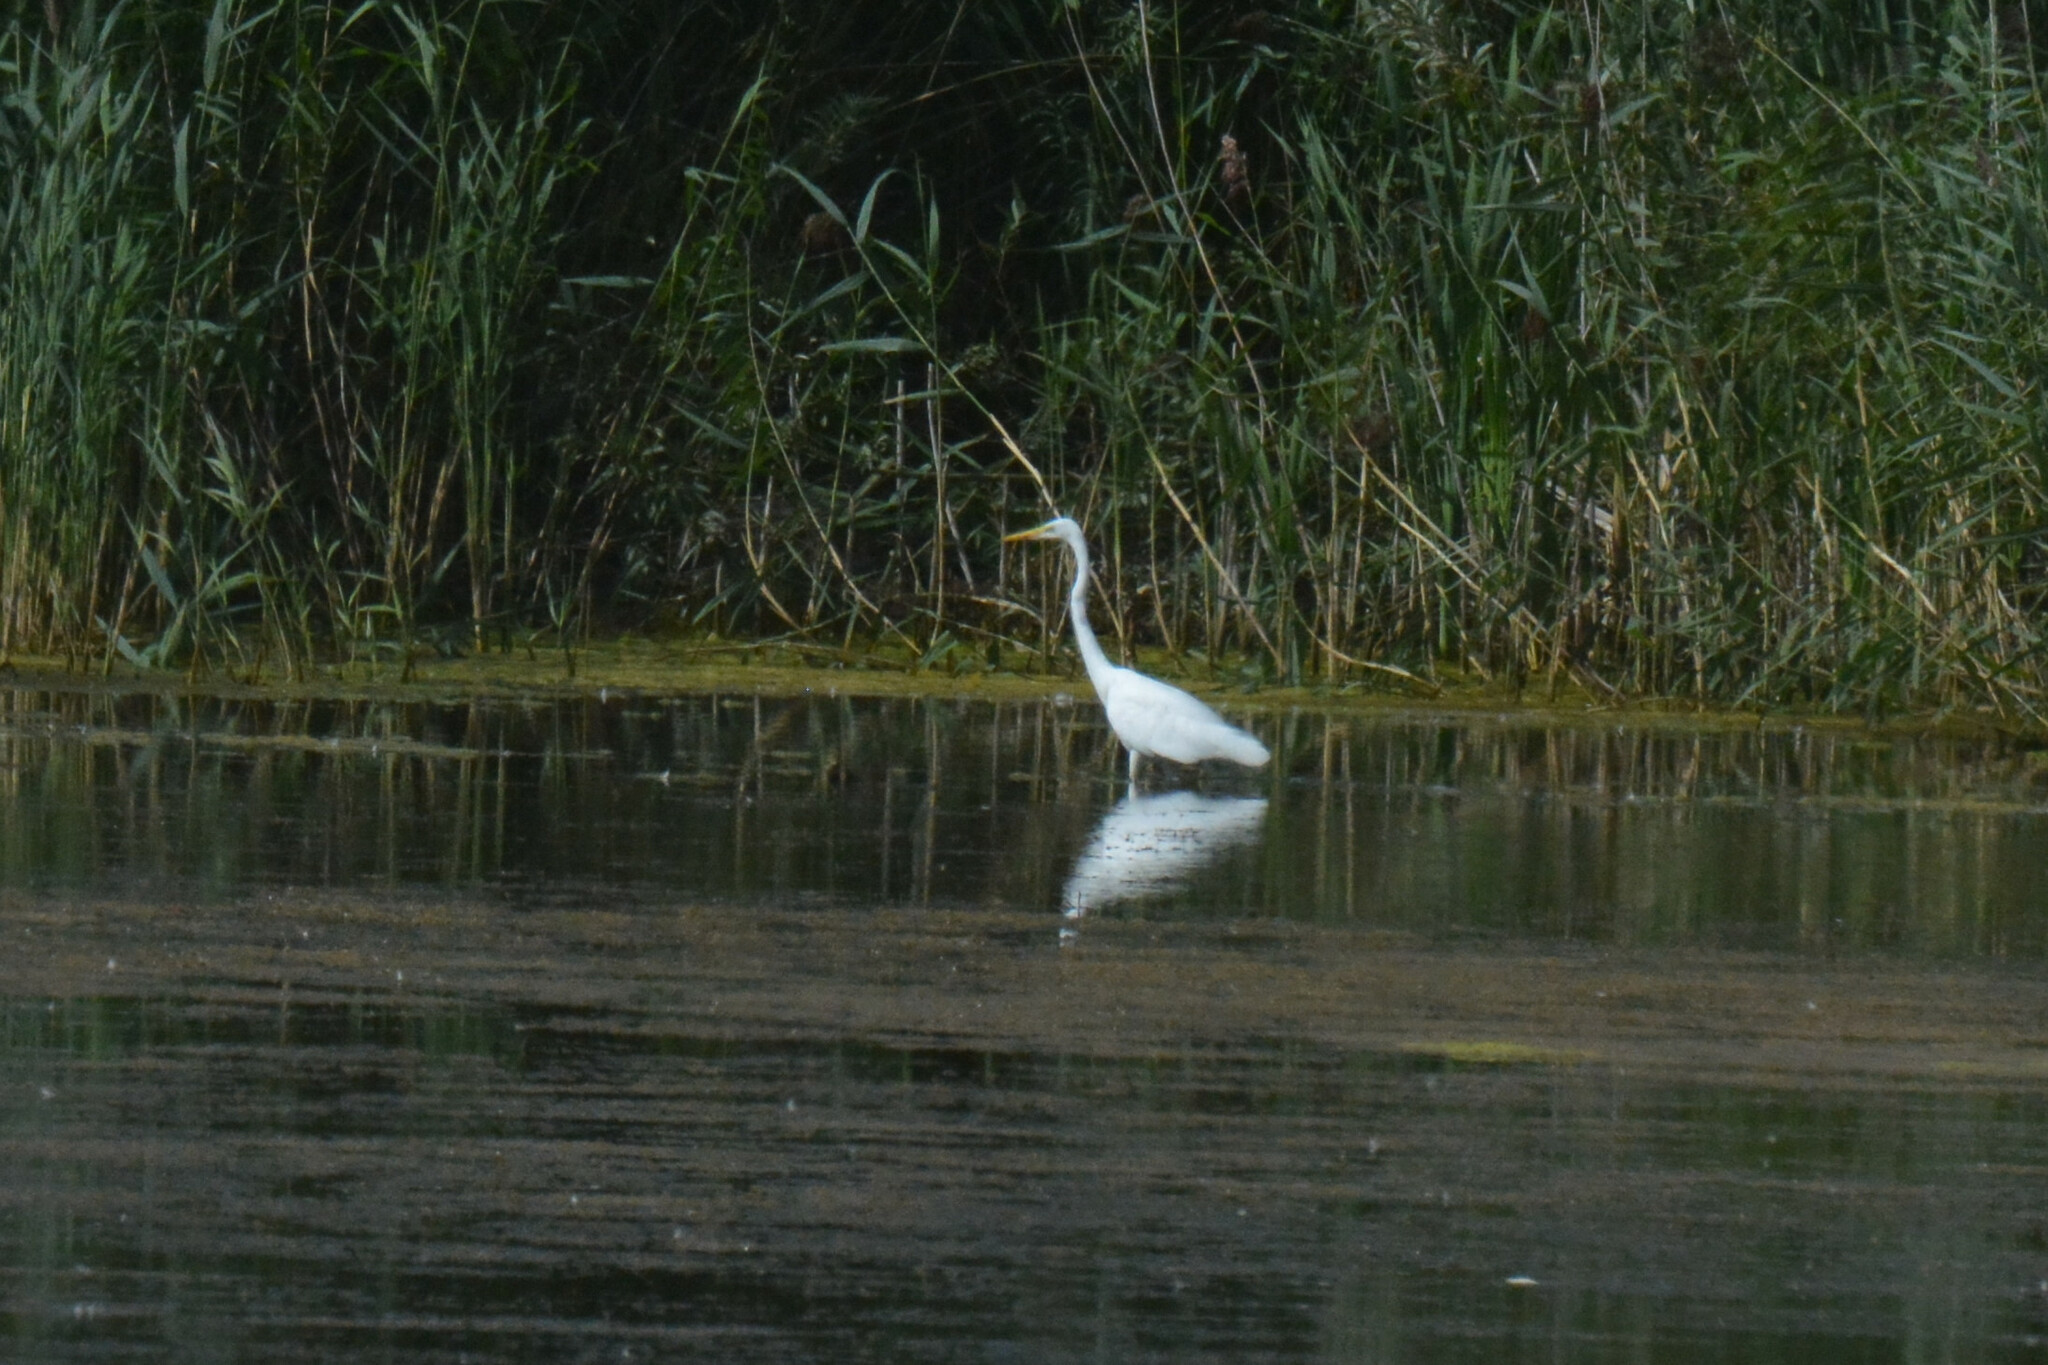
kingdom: Animalia
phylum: Chordata
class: Aves
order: Pelecaniformes
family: Ardeidae
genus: Ardea
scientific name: Ardea alba
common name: Great egret
